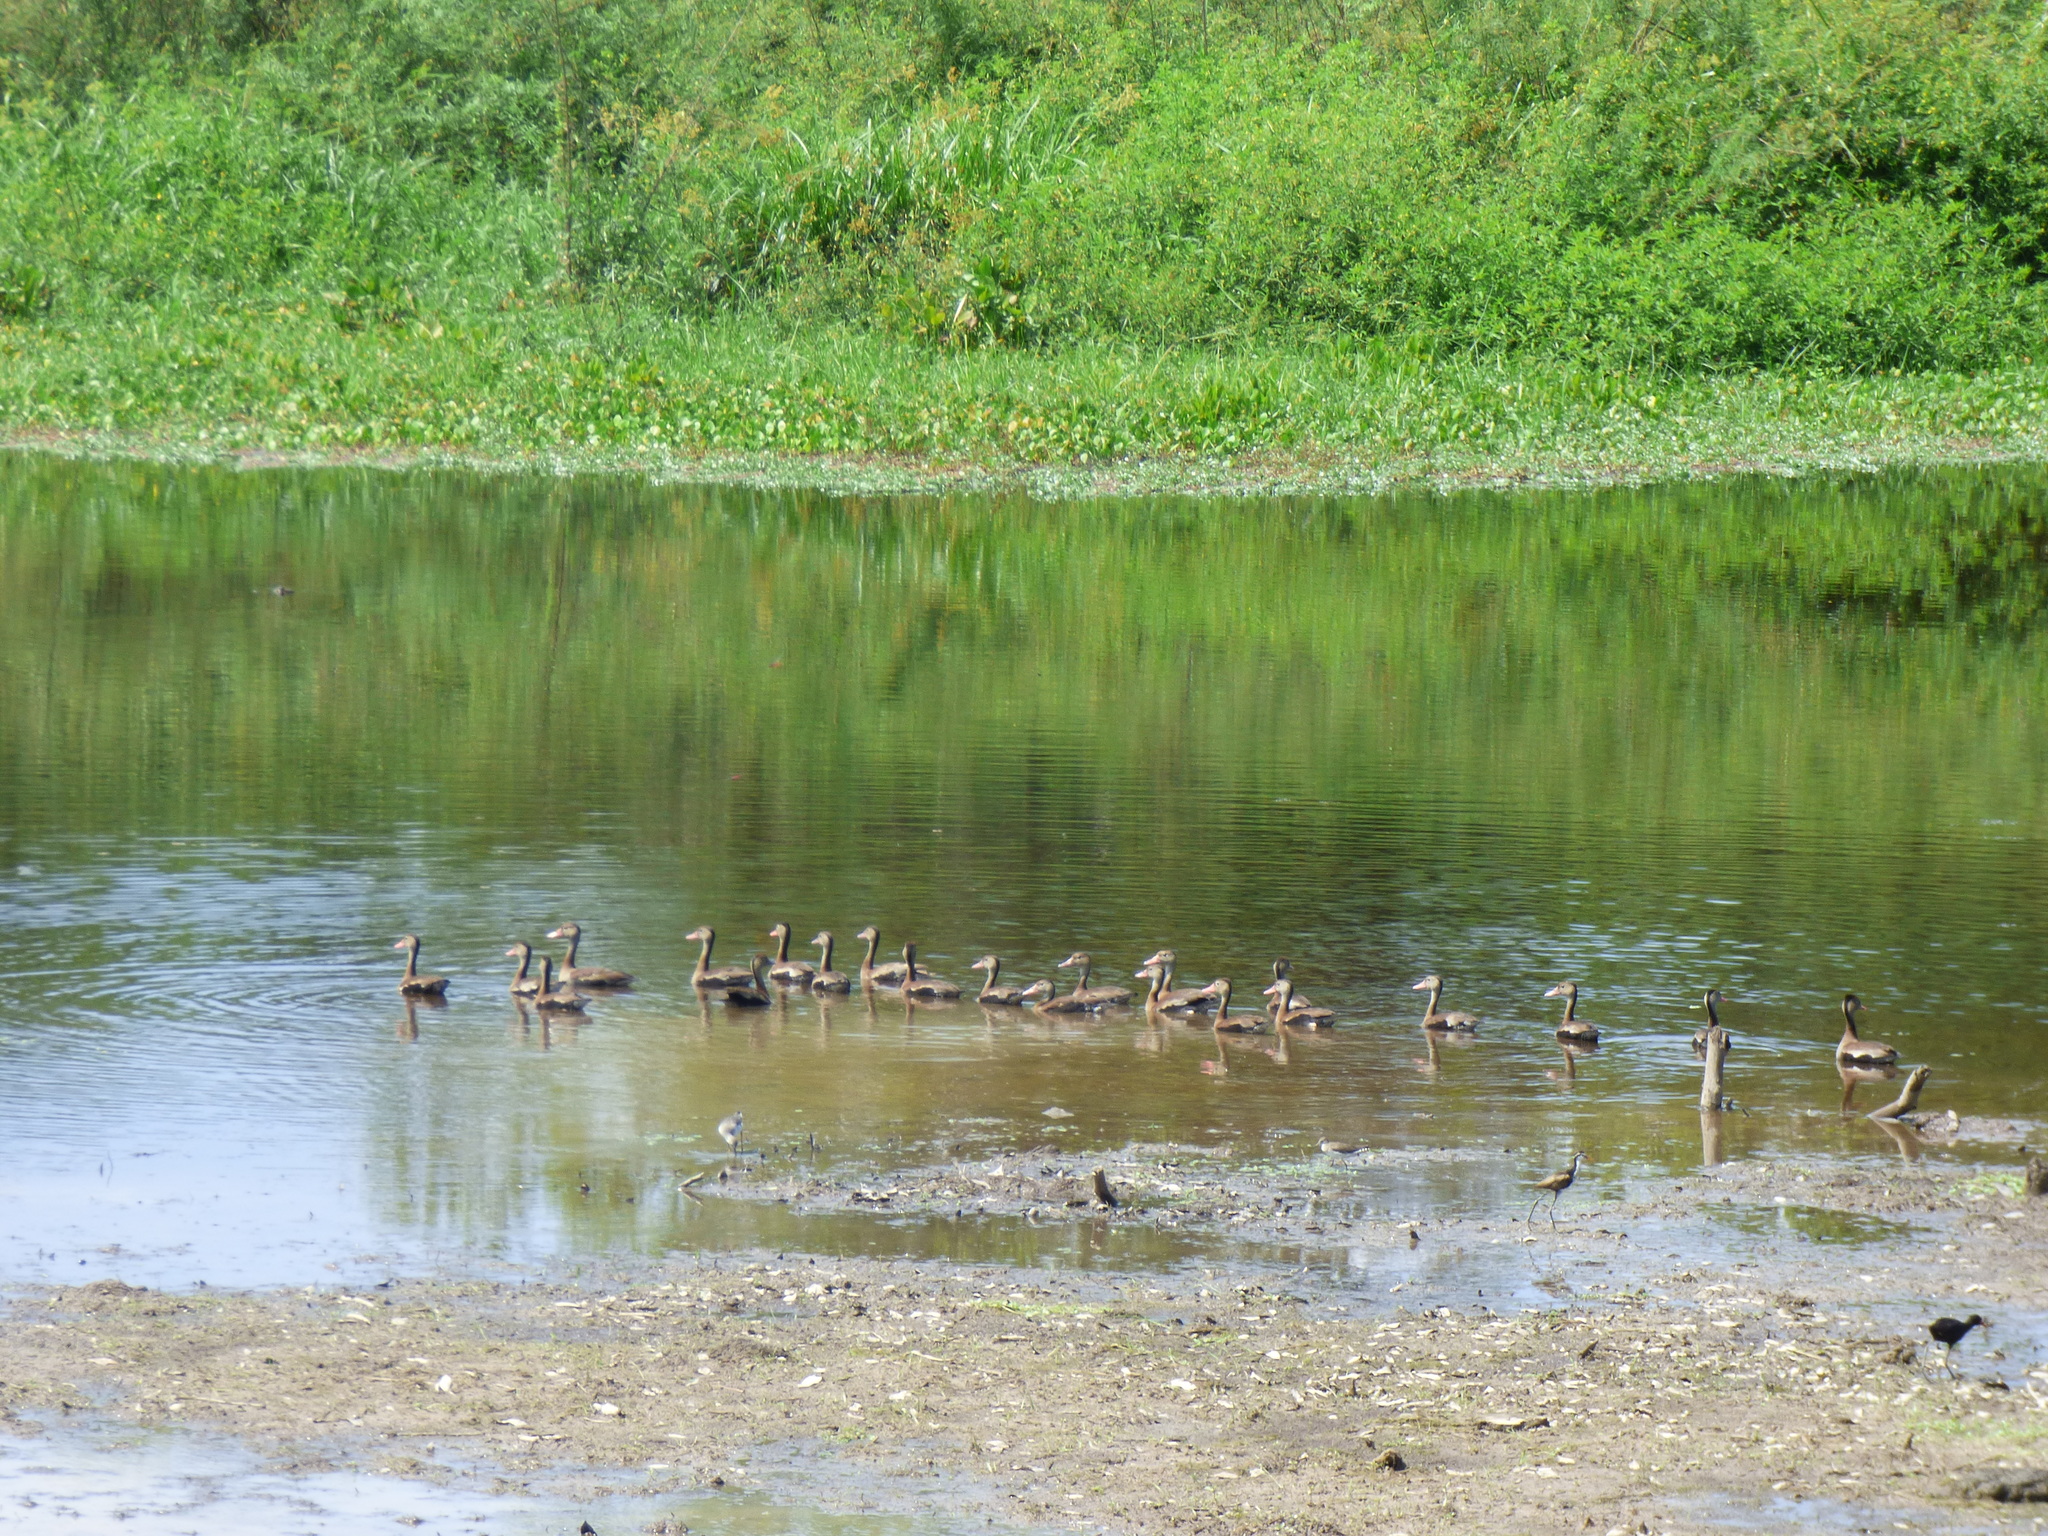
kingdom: Animalia
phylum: Chordata
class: Aves
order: Anseriformes
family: Anatidae
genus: Dendrocygna
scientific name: Dendrocygna autumnalis
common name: Black-bellied whistling duck
